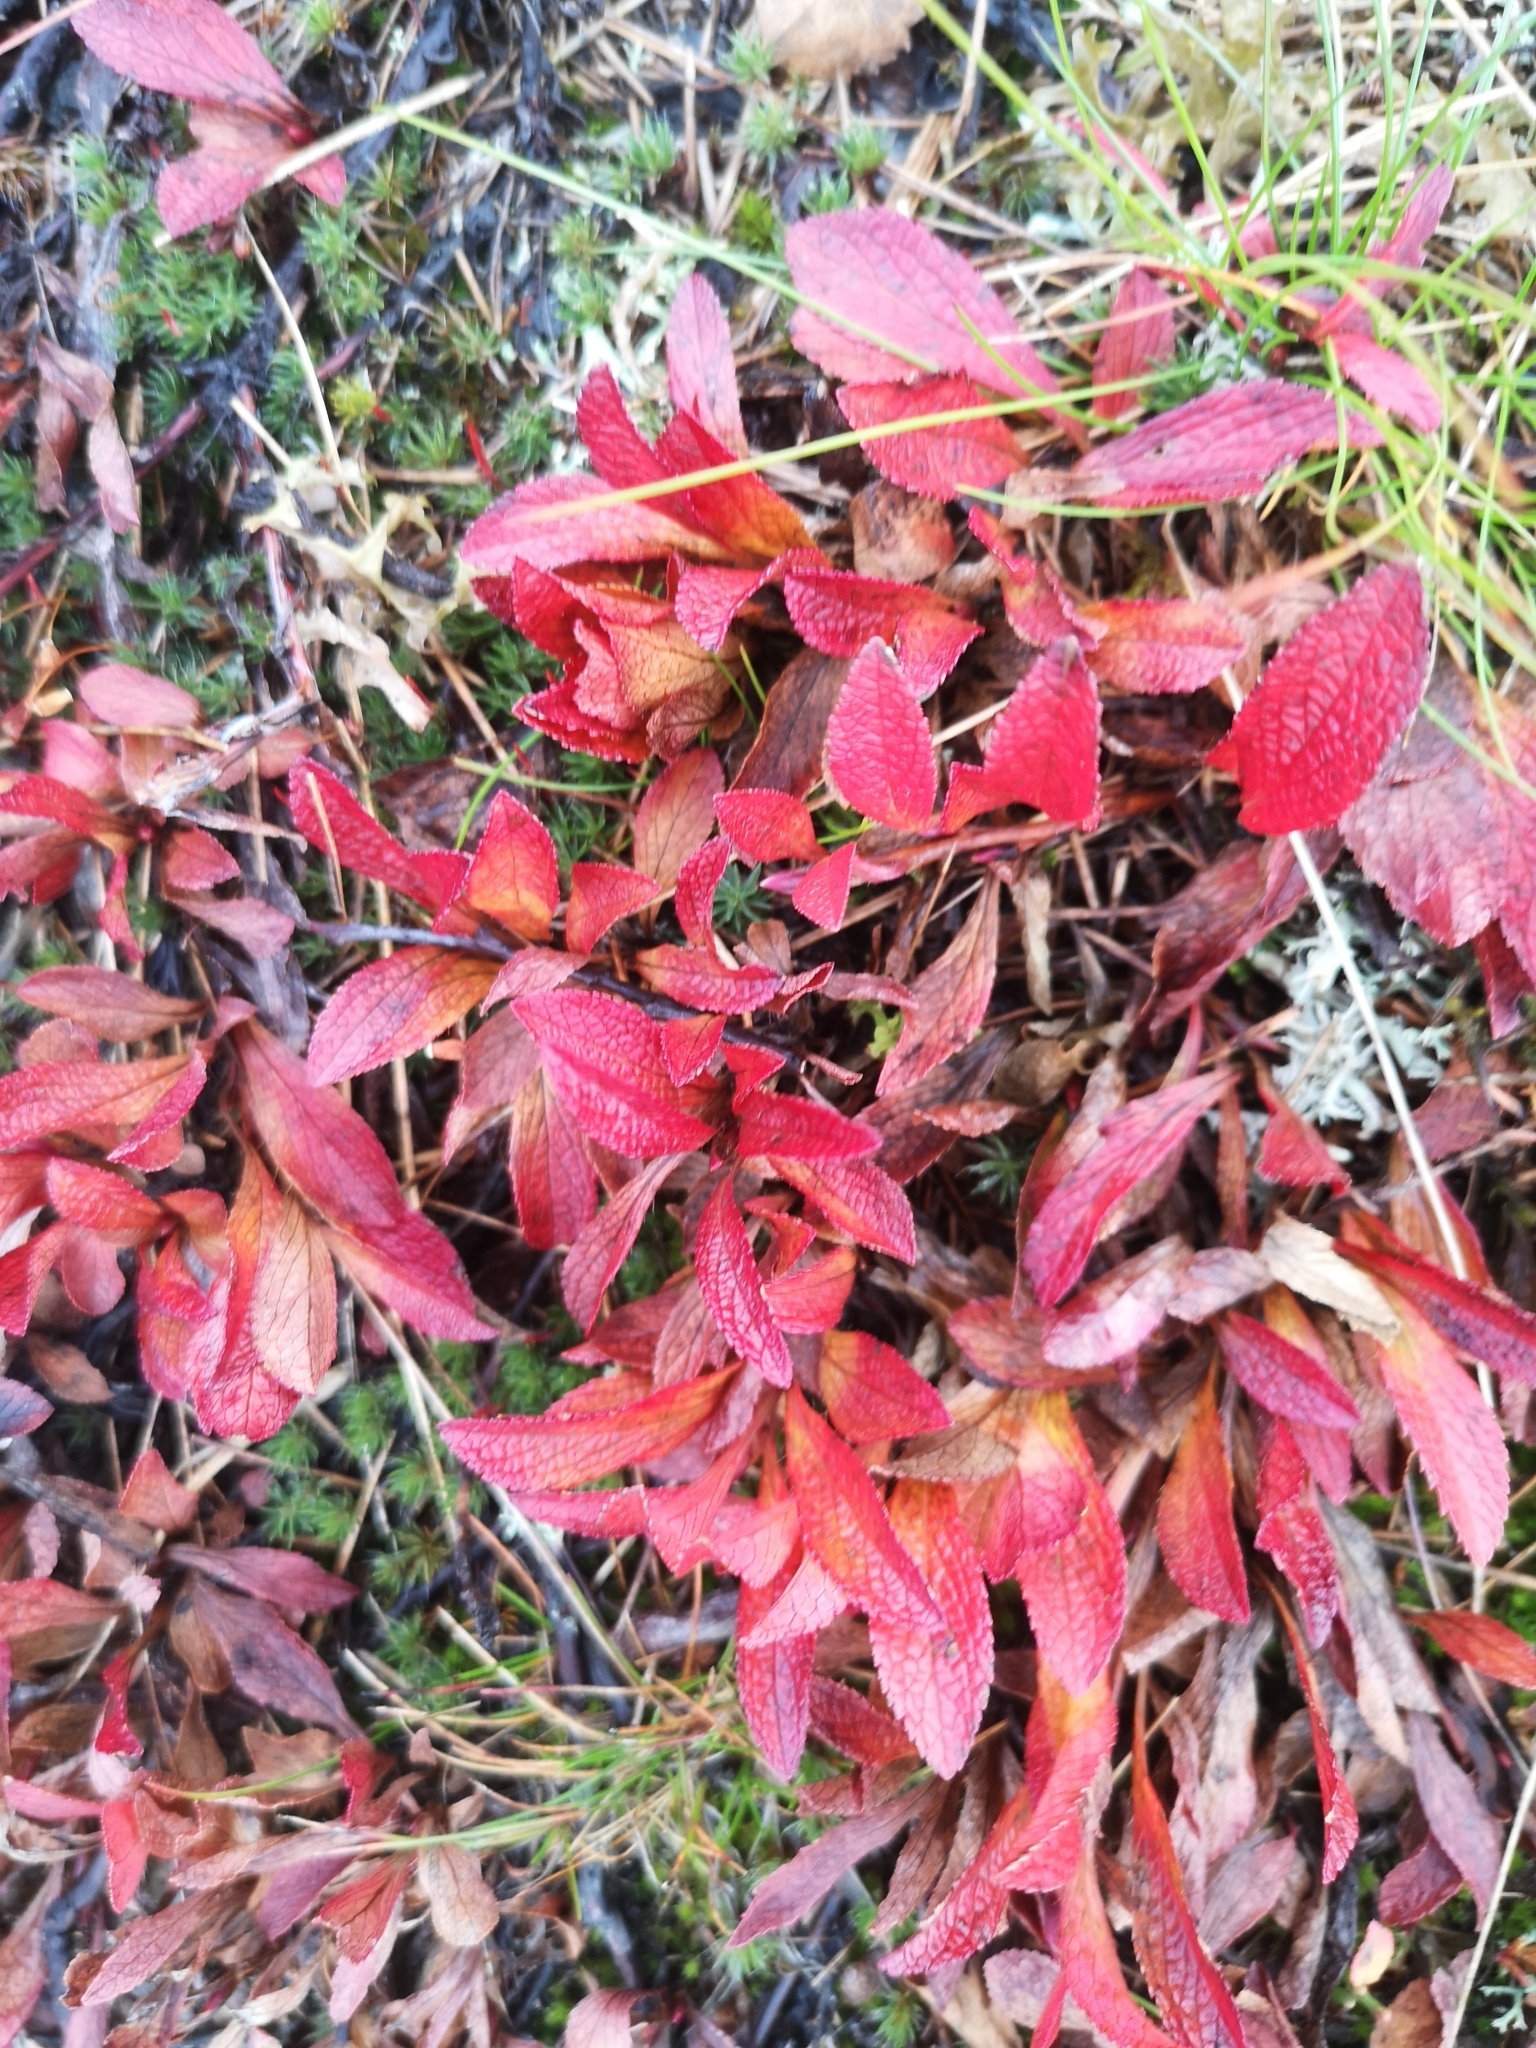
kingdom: Plantae
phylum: Tracheophyta
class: Magnoliopsida
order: Ericales
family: Ericaceae
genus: Arctostaphylos
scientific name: Arctostaphylos alpinus
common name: Alpine bearberry
